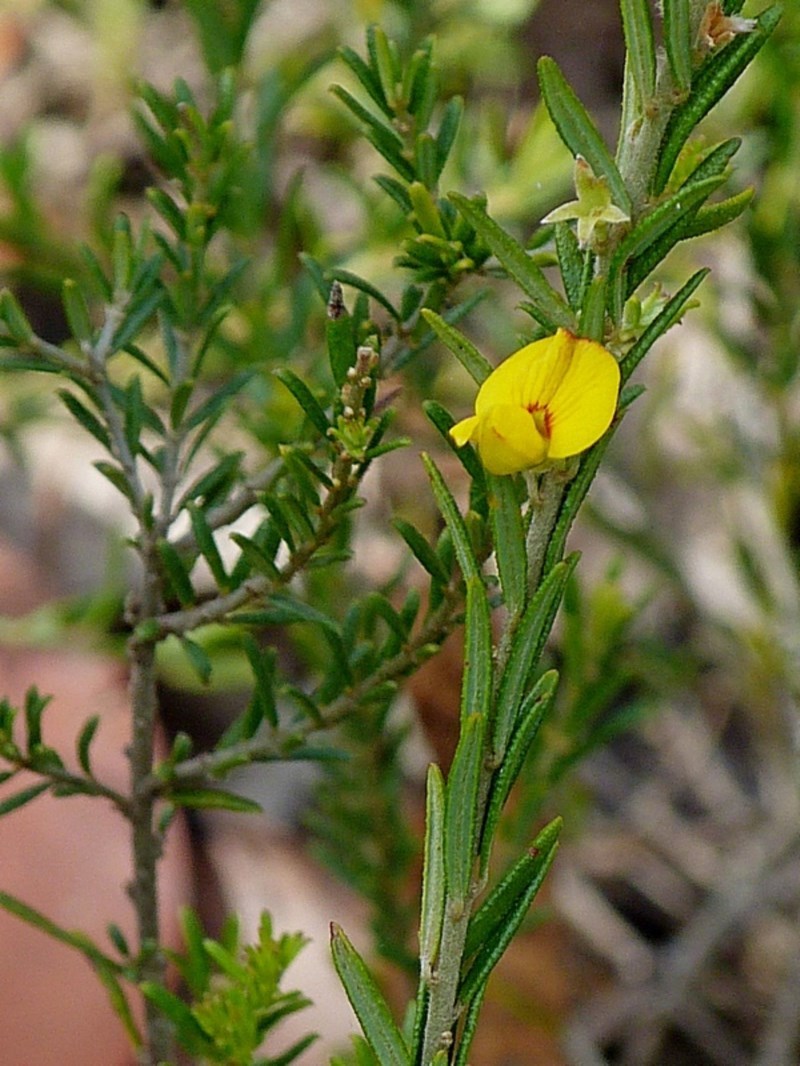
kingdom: Plantae
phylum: Tracheophyta
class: Magnoliopsida
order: Fabales
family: Fabaceae
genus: Aotus
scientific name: Aotus ericoides
